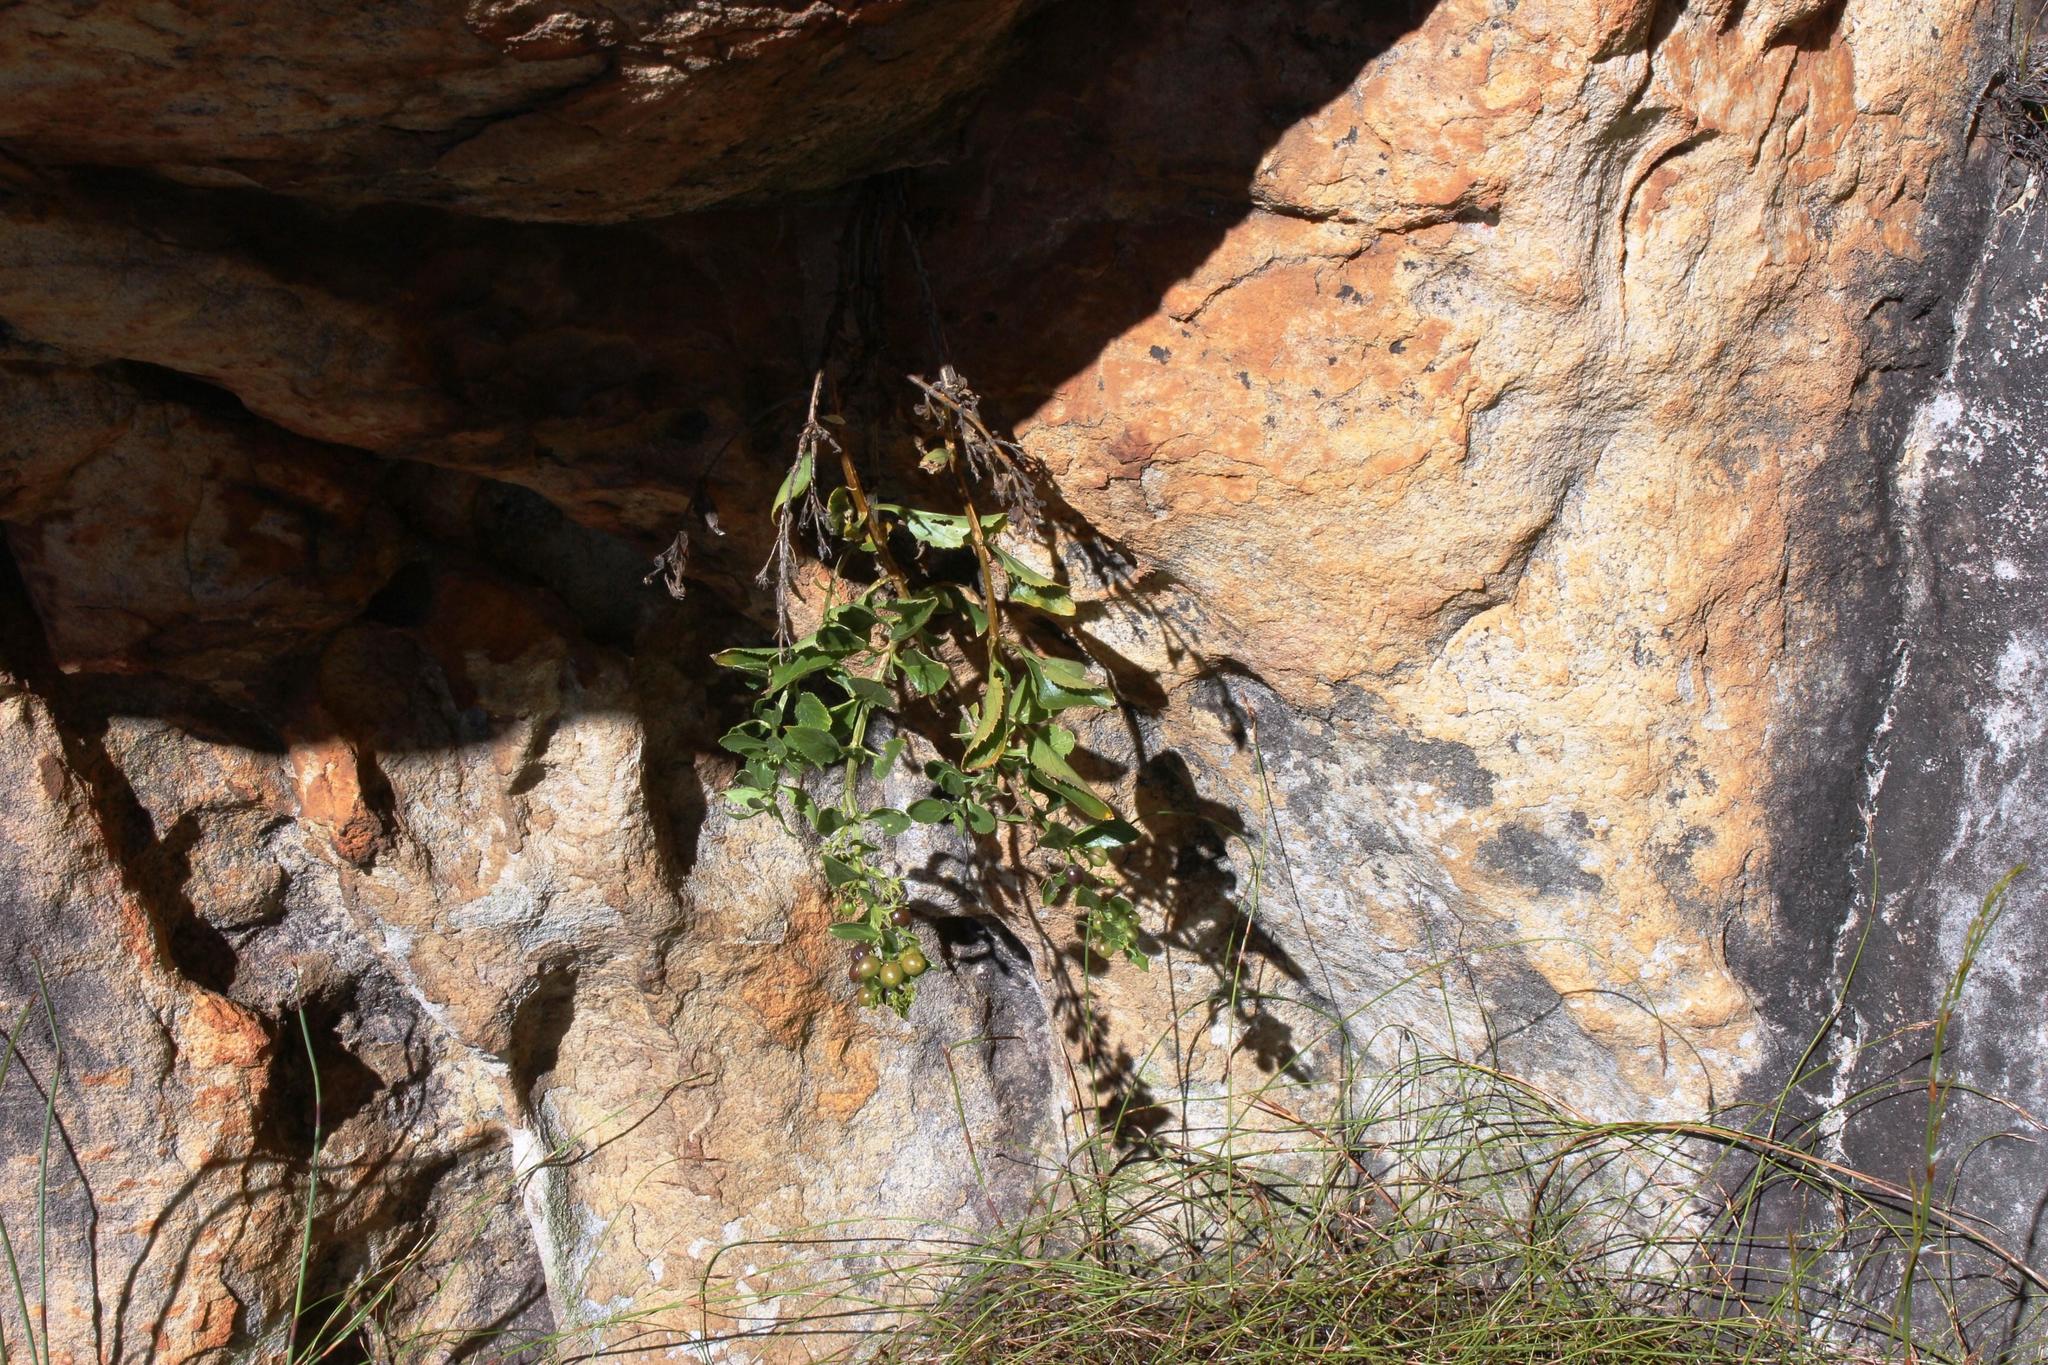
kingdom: Plantae
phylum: Tracheophyta
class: Magnoliopsida
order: Lamiales
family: Scrophulariaceae
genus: Teedia
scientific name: Teedia lucida
